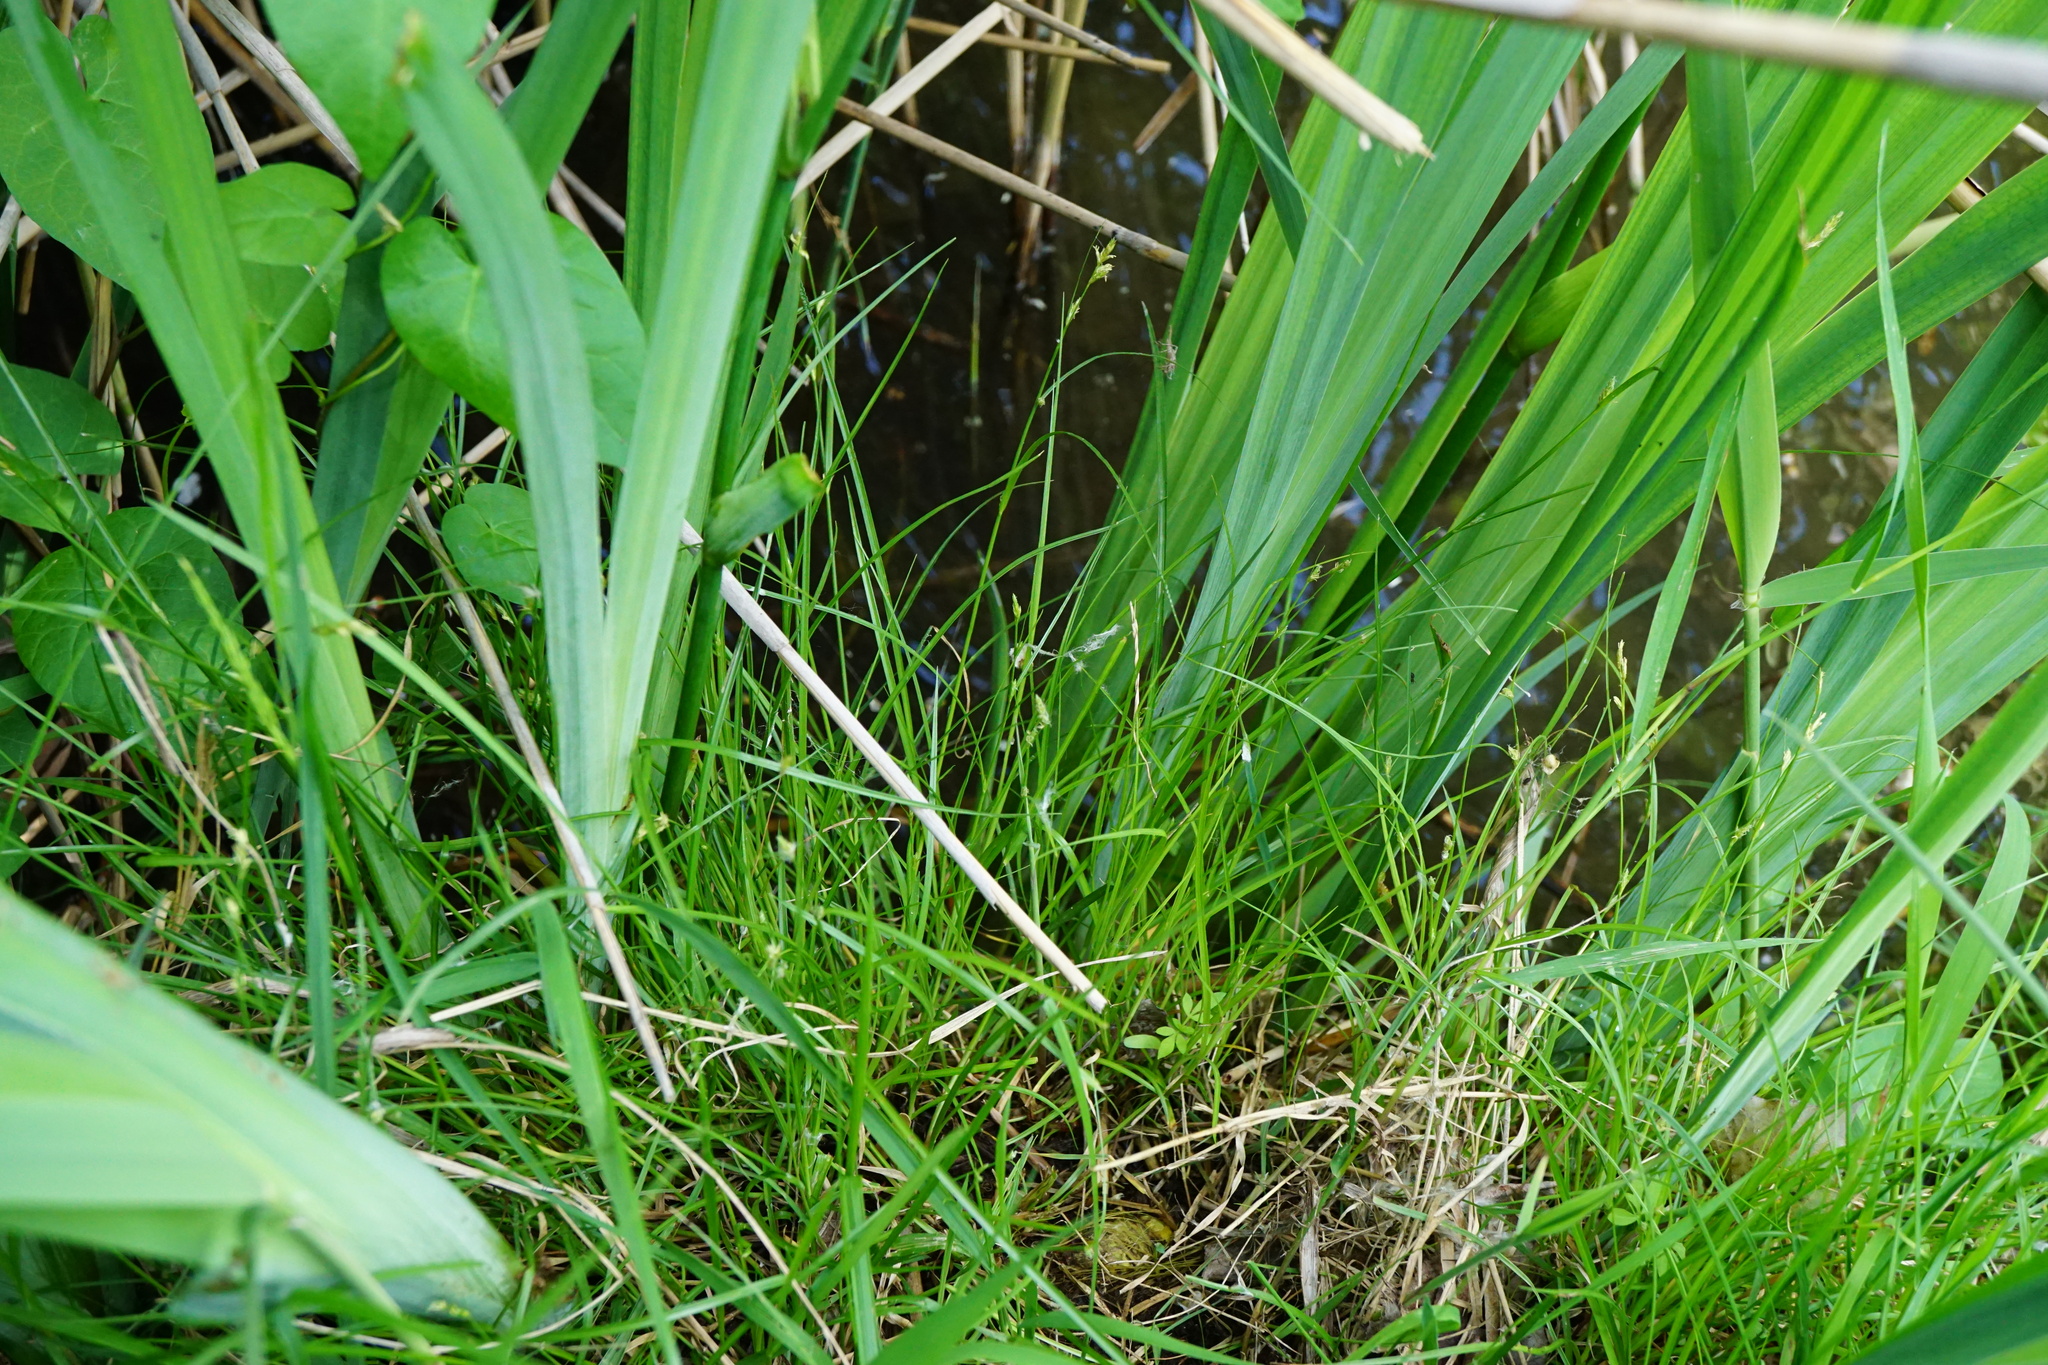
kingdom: Plantae
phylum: Tracheophyta
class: Liliopsida
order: Poales
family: Cyperaceae
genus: Carex
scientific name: Carex remota
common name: Remote sedge
